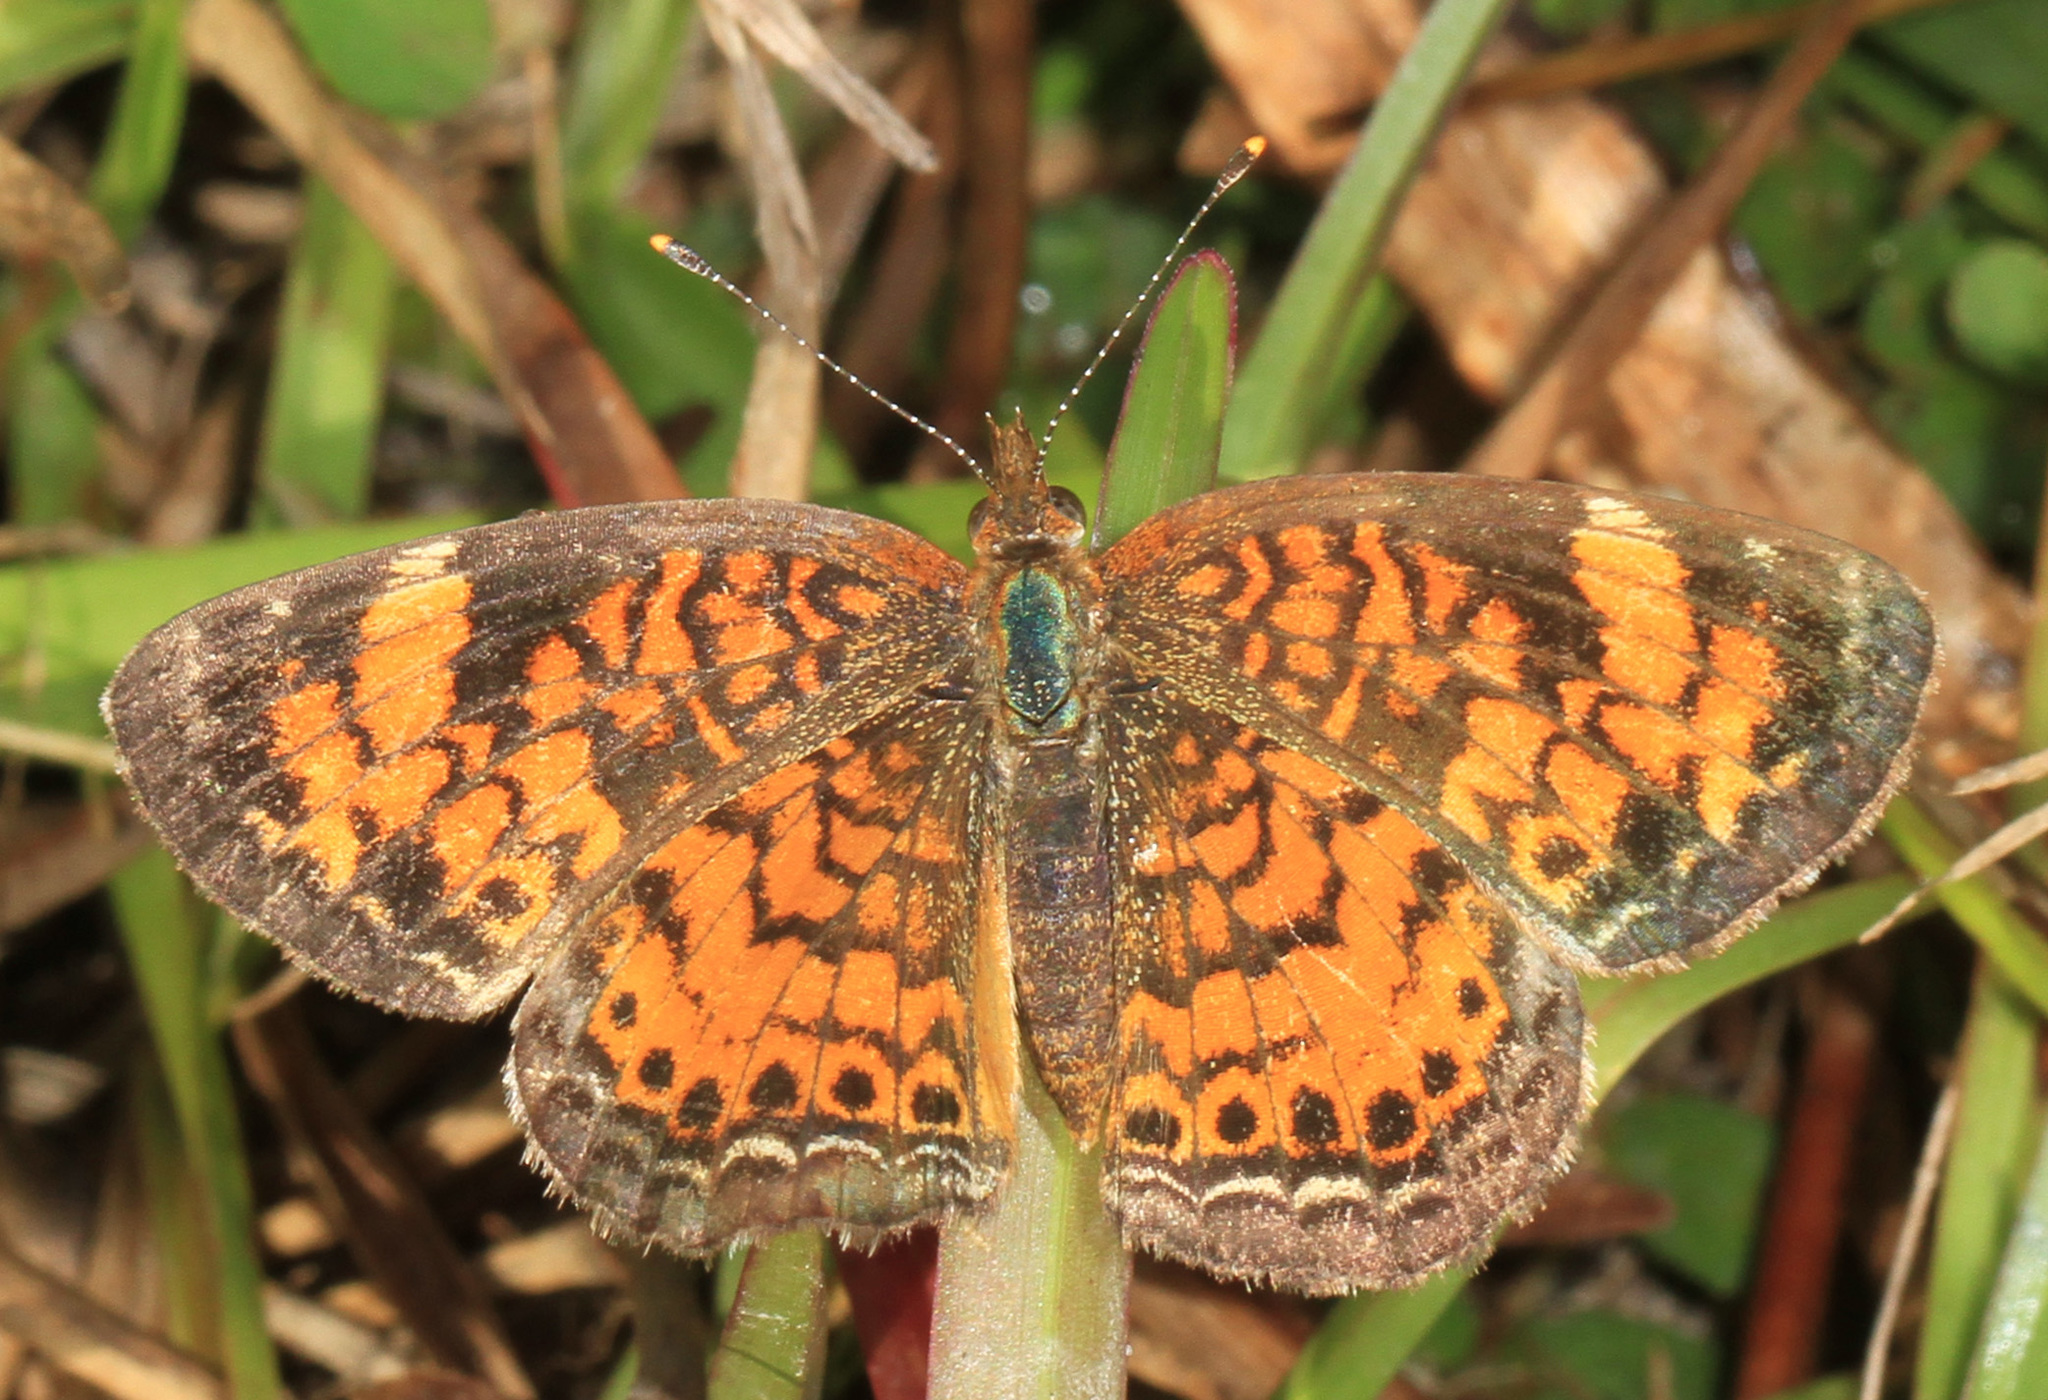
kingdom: Animalia
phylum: Arthropoda
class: Insecta
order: Lepidoptera
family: Nymphalidae
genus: Phyciodes
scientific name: Phyciodes tharos
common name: Pearl crescent
